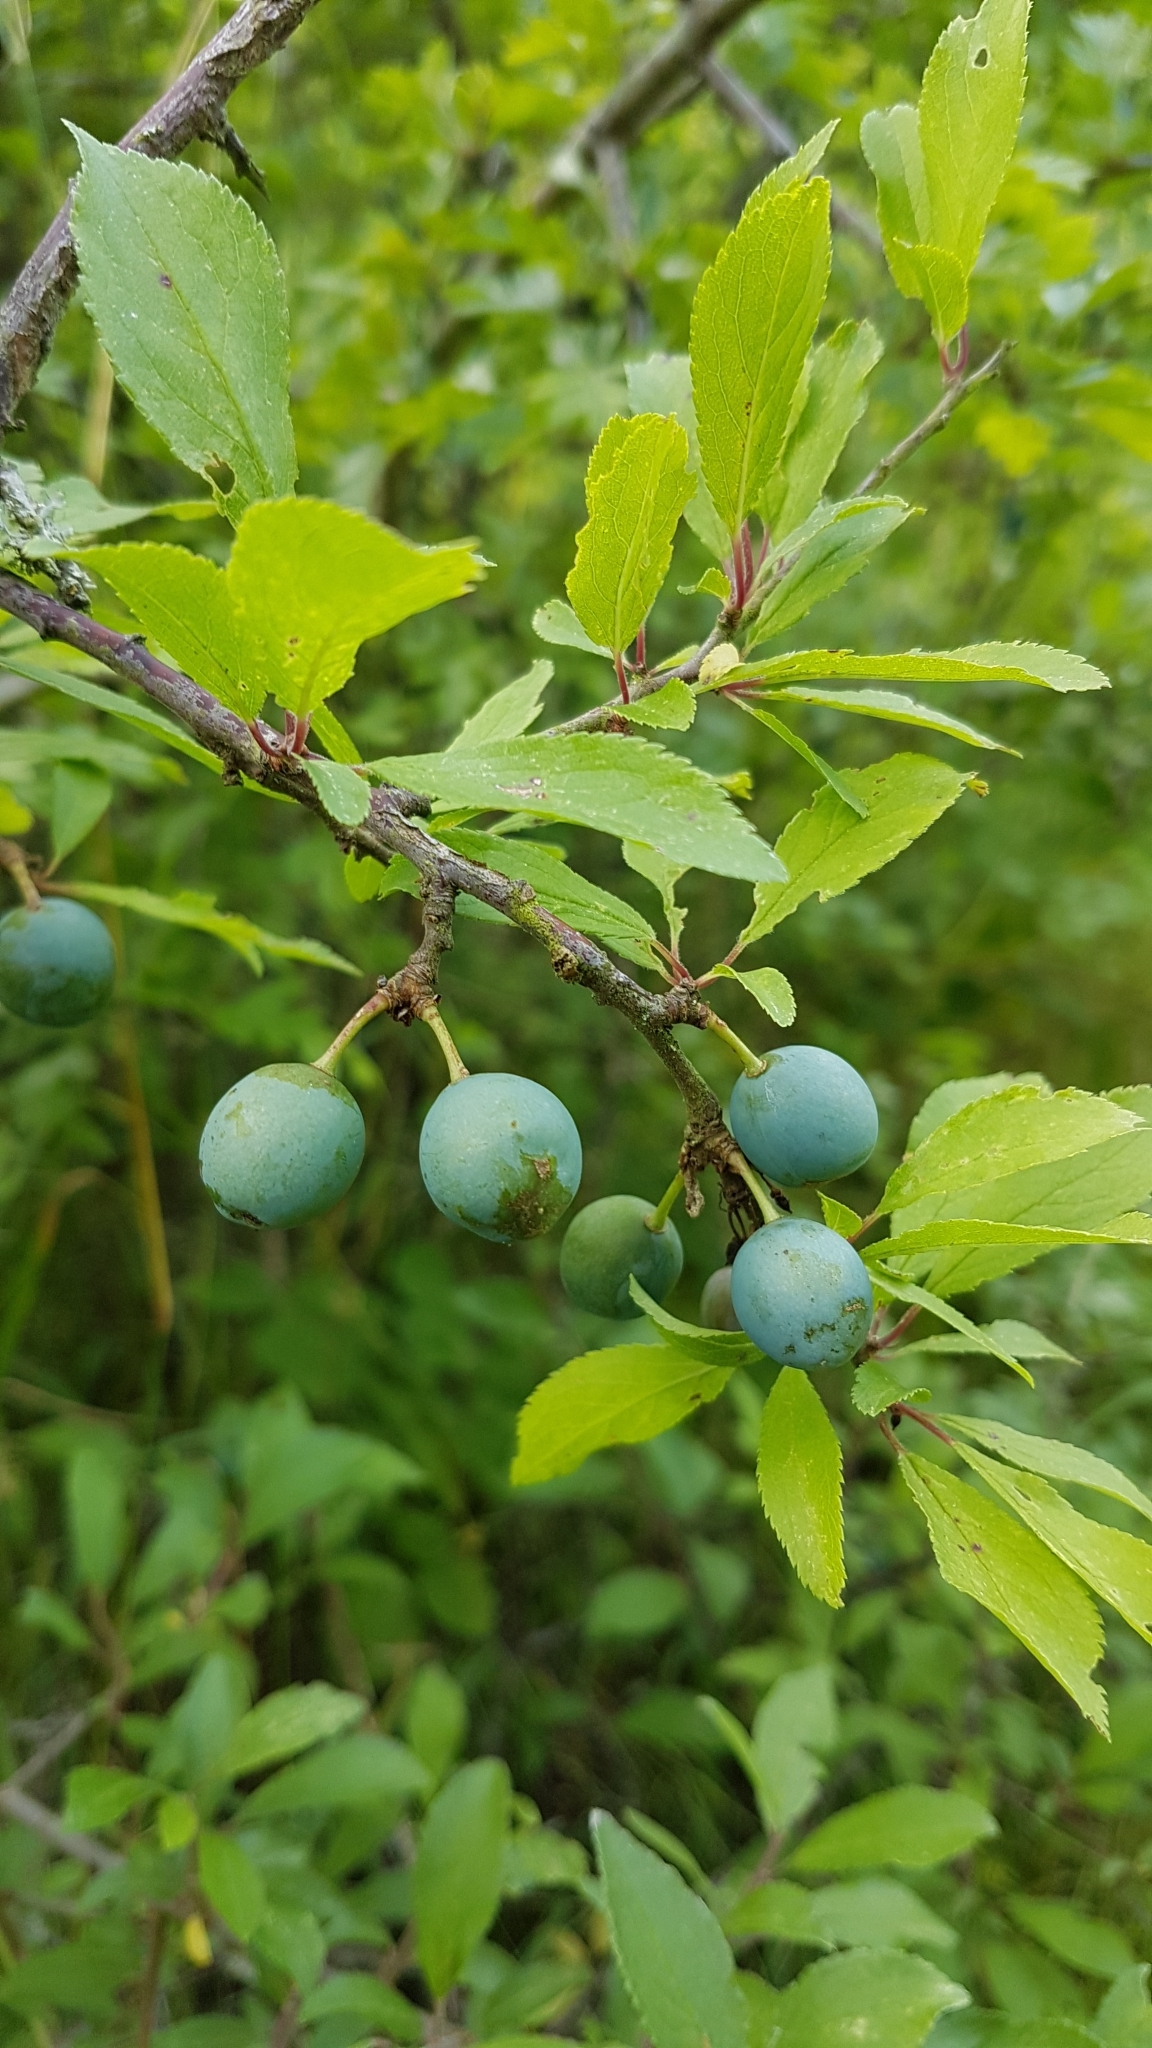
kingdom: Plantae
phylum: Tracheophyta
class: Magnoliopsida
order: Rosales
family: Rosaceae
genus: Prunus
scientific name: Prunus spinosa
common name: Blackthorn
